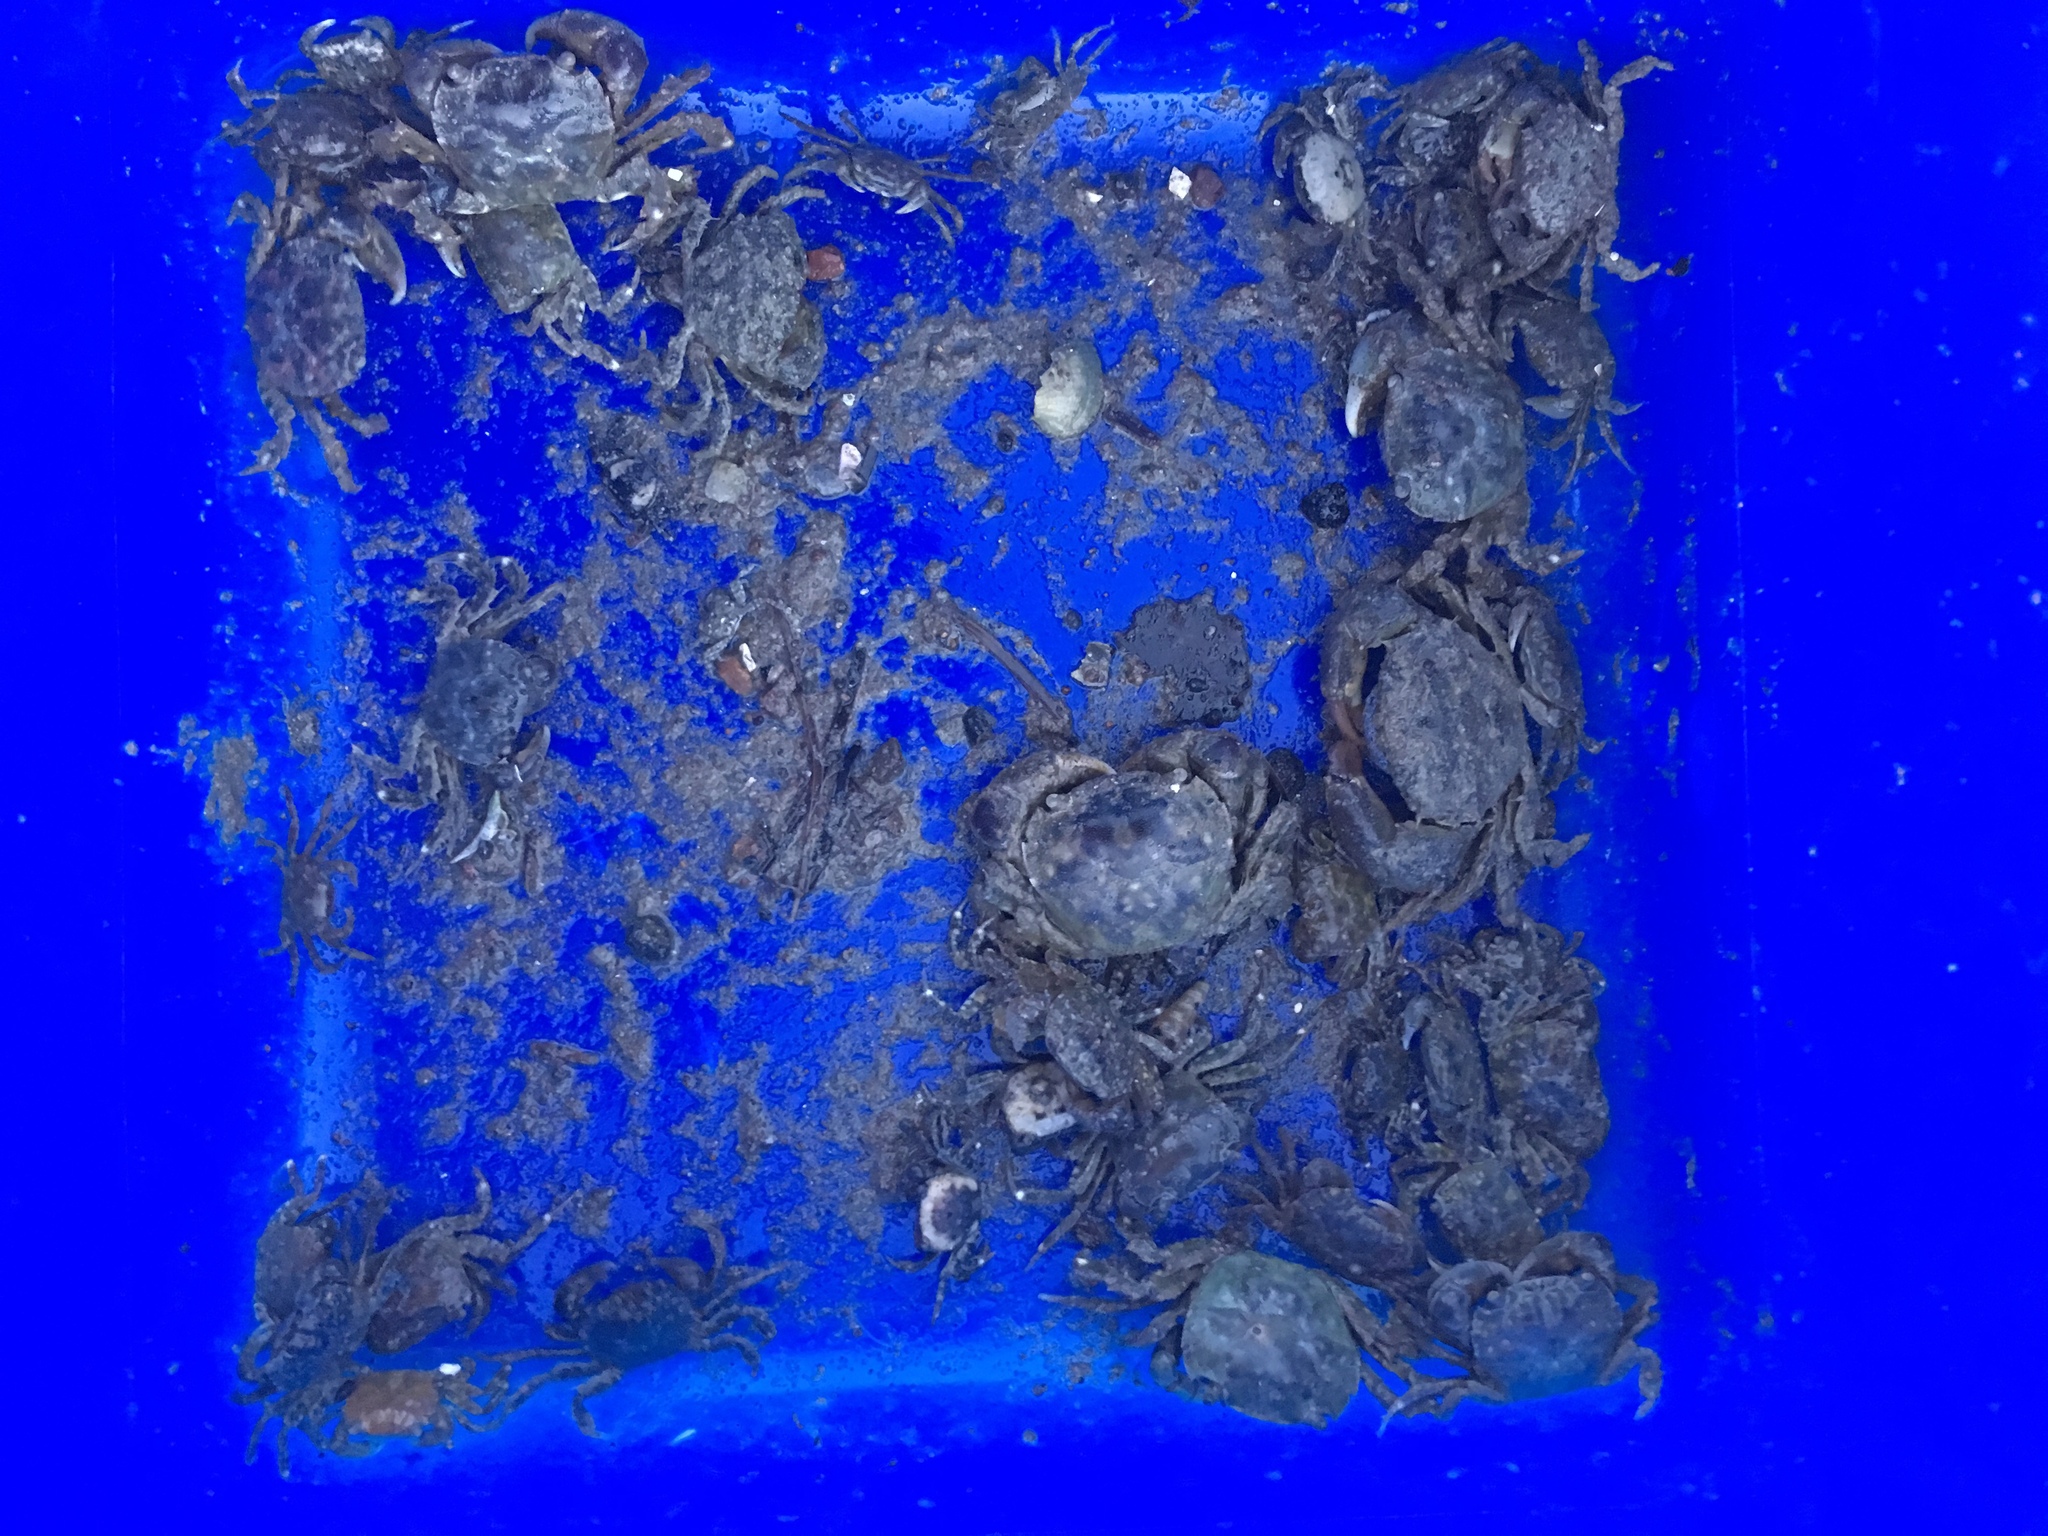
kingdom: Animalia
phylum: Arthropoda
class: Malacostraca
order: Decapoda
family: Varunidae
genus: Hemigrapsus
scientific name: Hemigrapsus crenulatus
